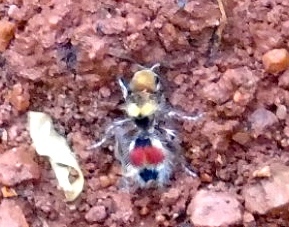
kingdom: Animalia
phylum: Arthropoda
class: Insecta
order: Hymenoptera
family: Mutillidae
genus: Dasymutilla
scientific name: Dasymutilla foxi
